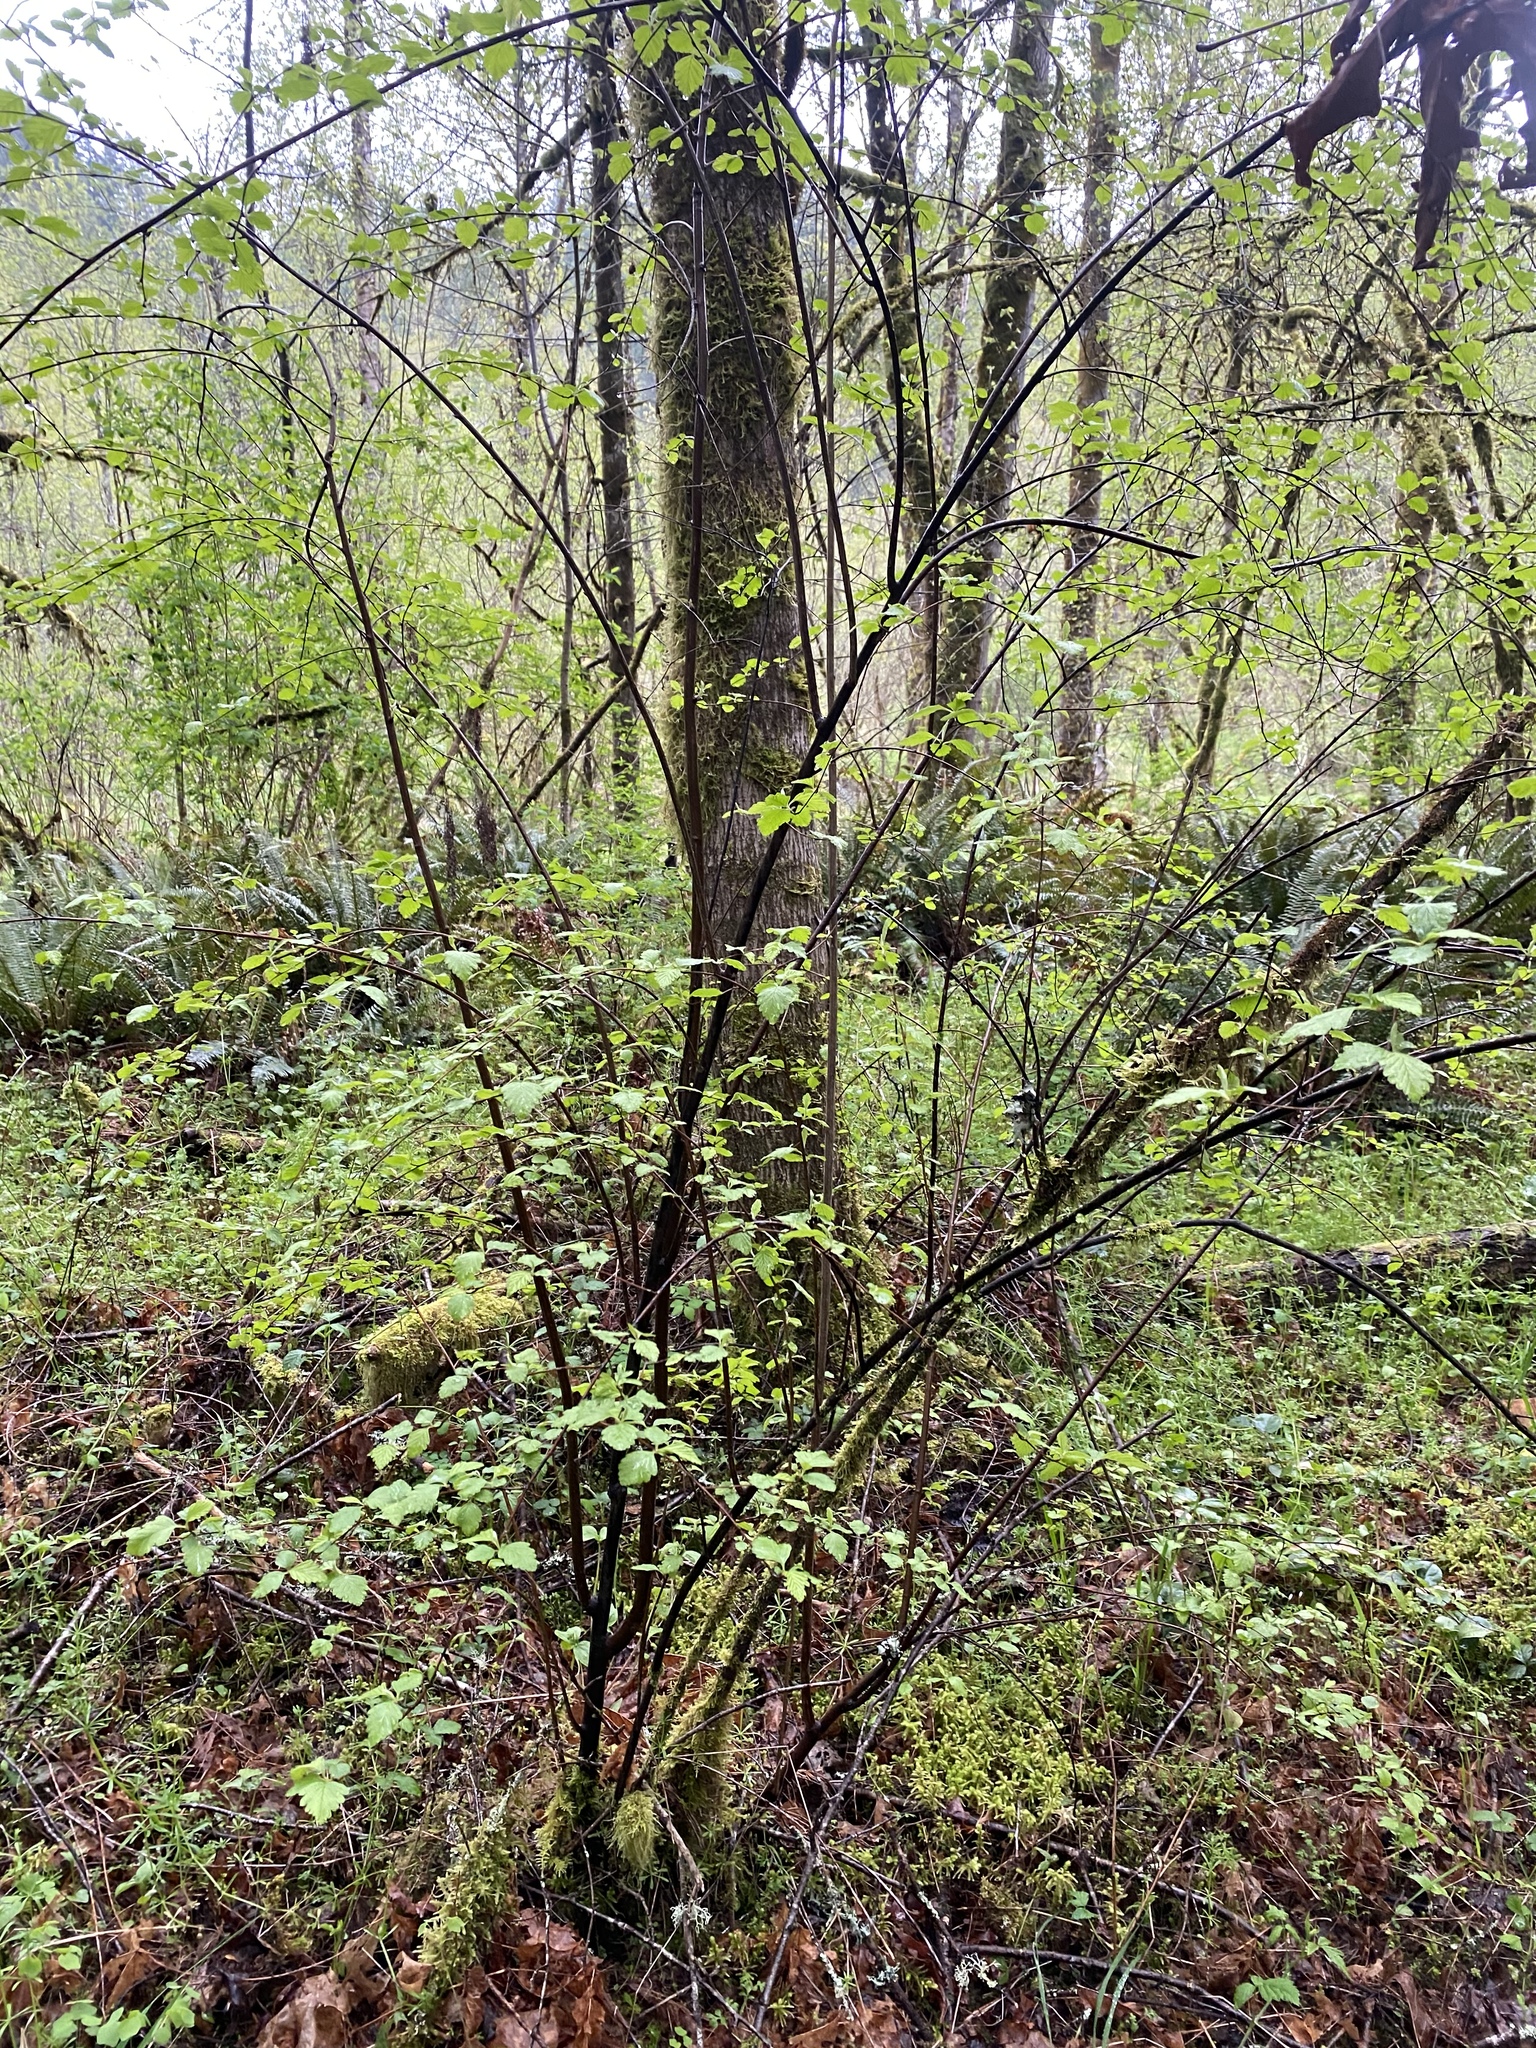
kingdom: Plantae
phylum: Tracheophyta
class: Magnoliopsida
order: Rosales
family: Rosaceae
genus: Holodiscus
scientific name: Holodiscus discolor
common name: Oceanspray
